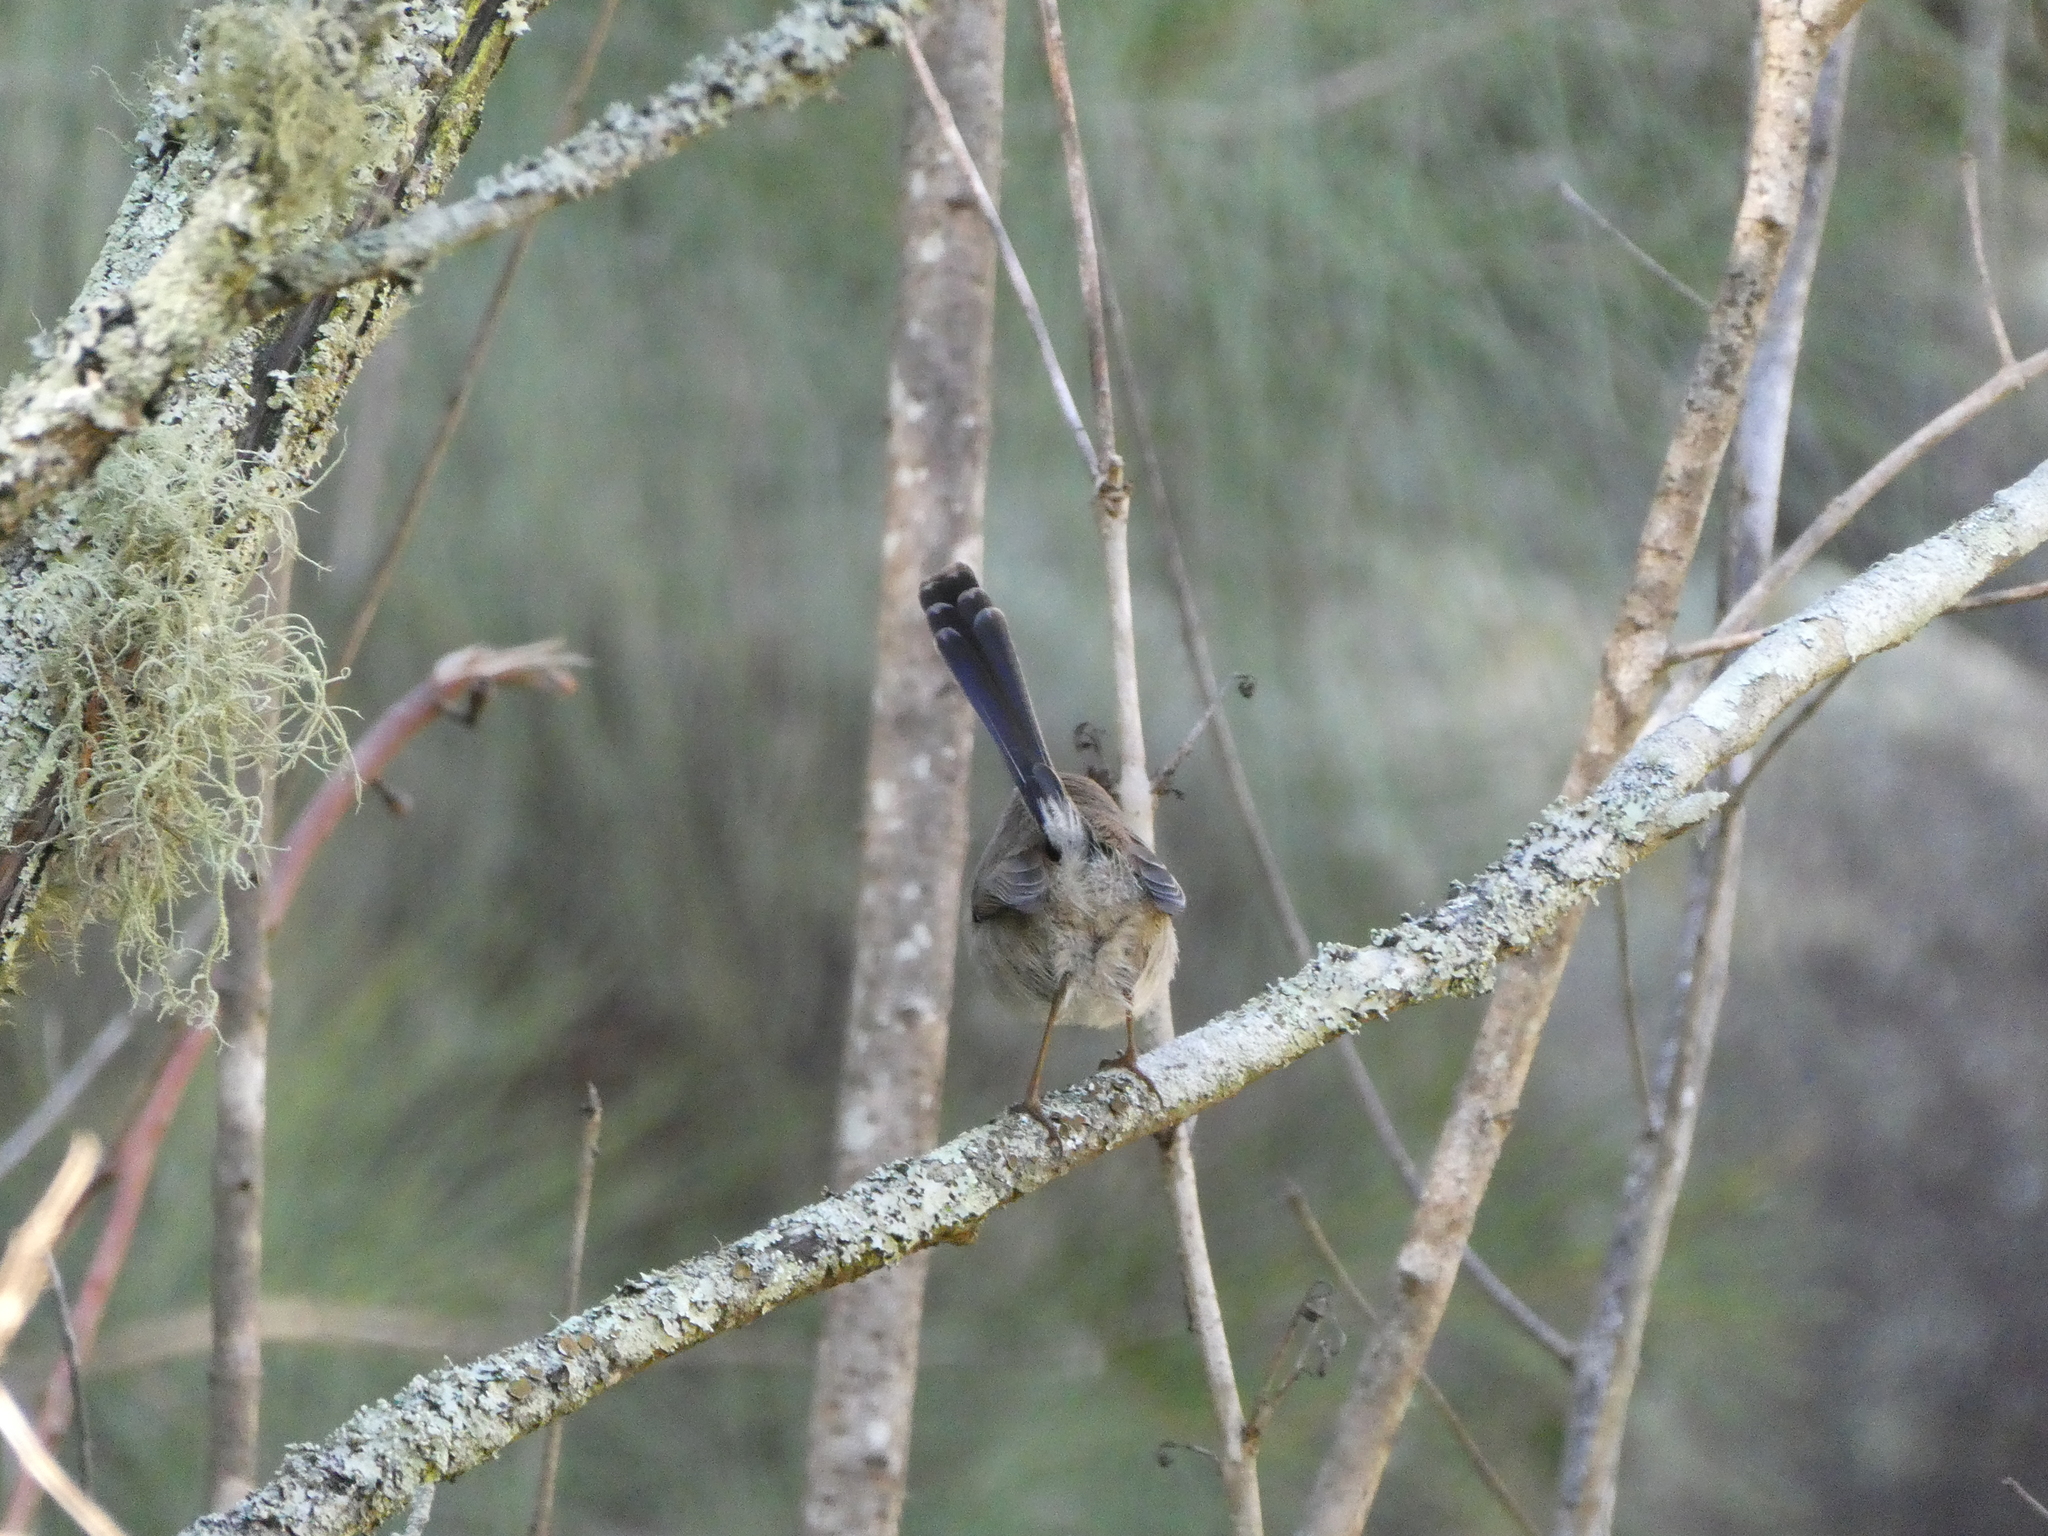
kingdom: Animalia
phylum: Chordata
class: Aves
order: Passeriformes
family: Maluridae
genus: Malurus
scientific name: Malurus cyaneus
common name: Superb fairywren
